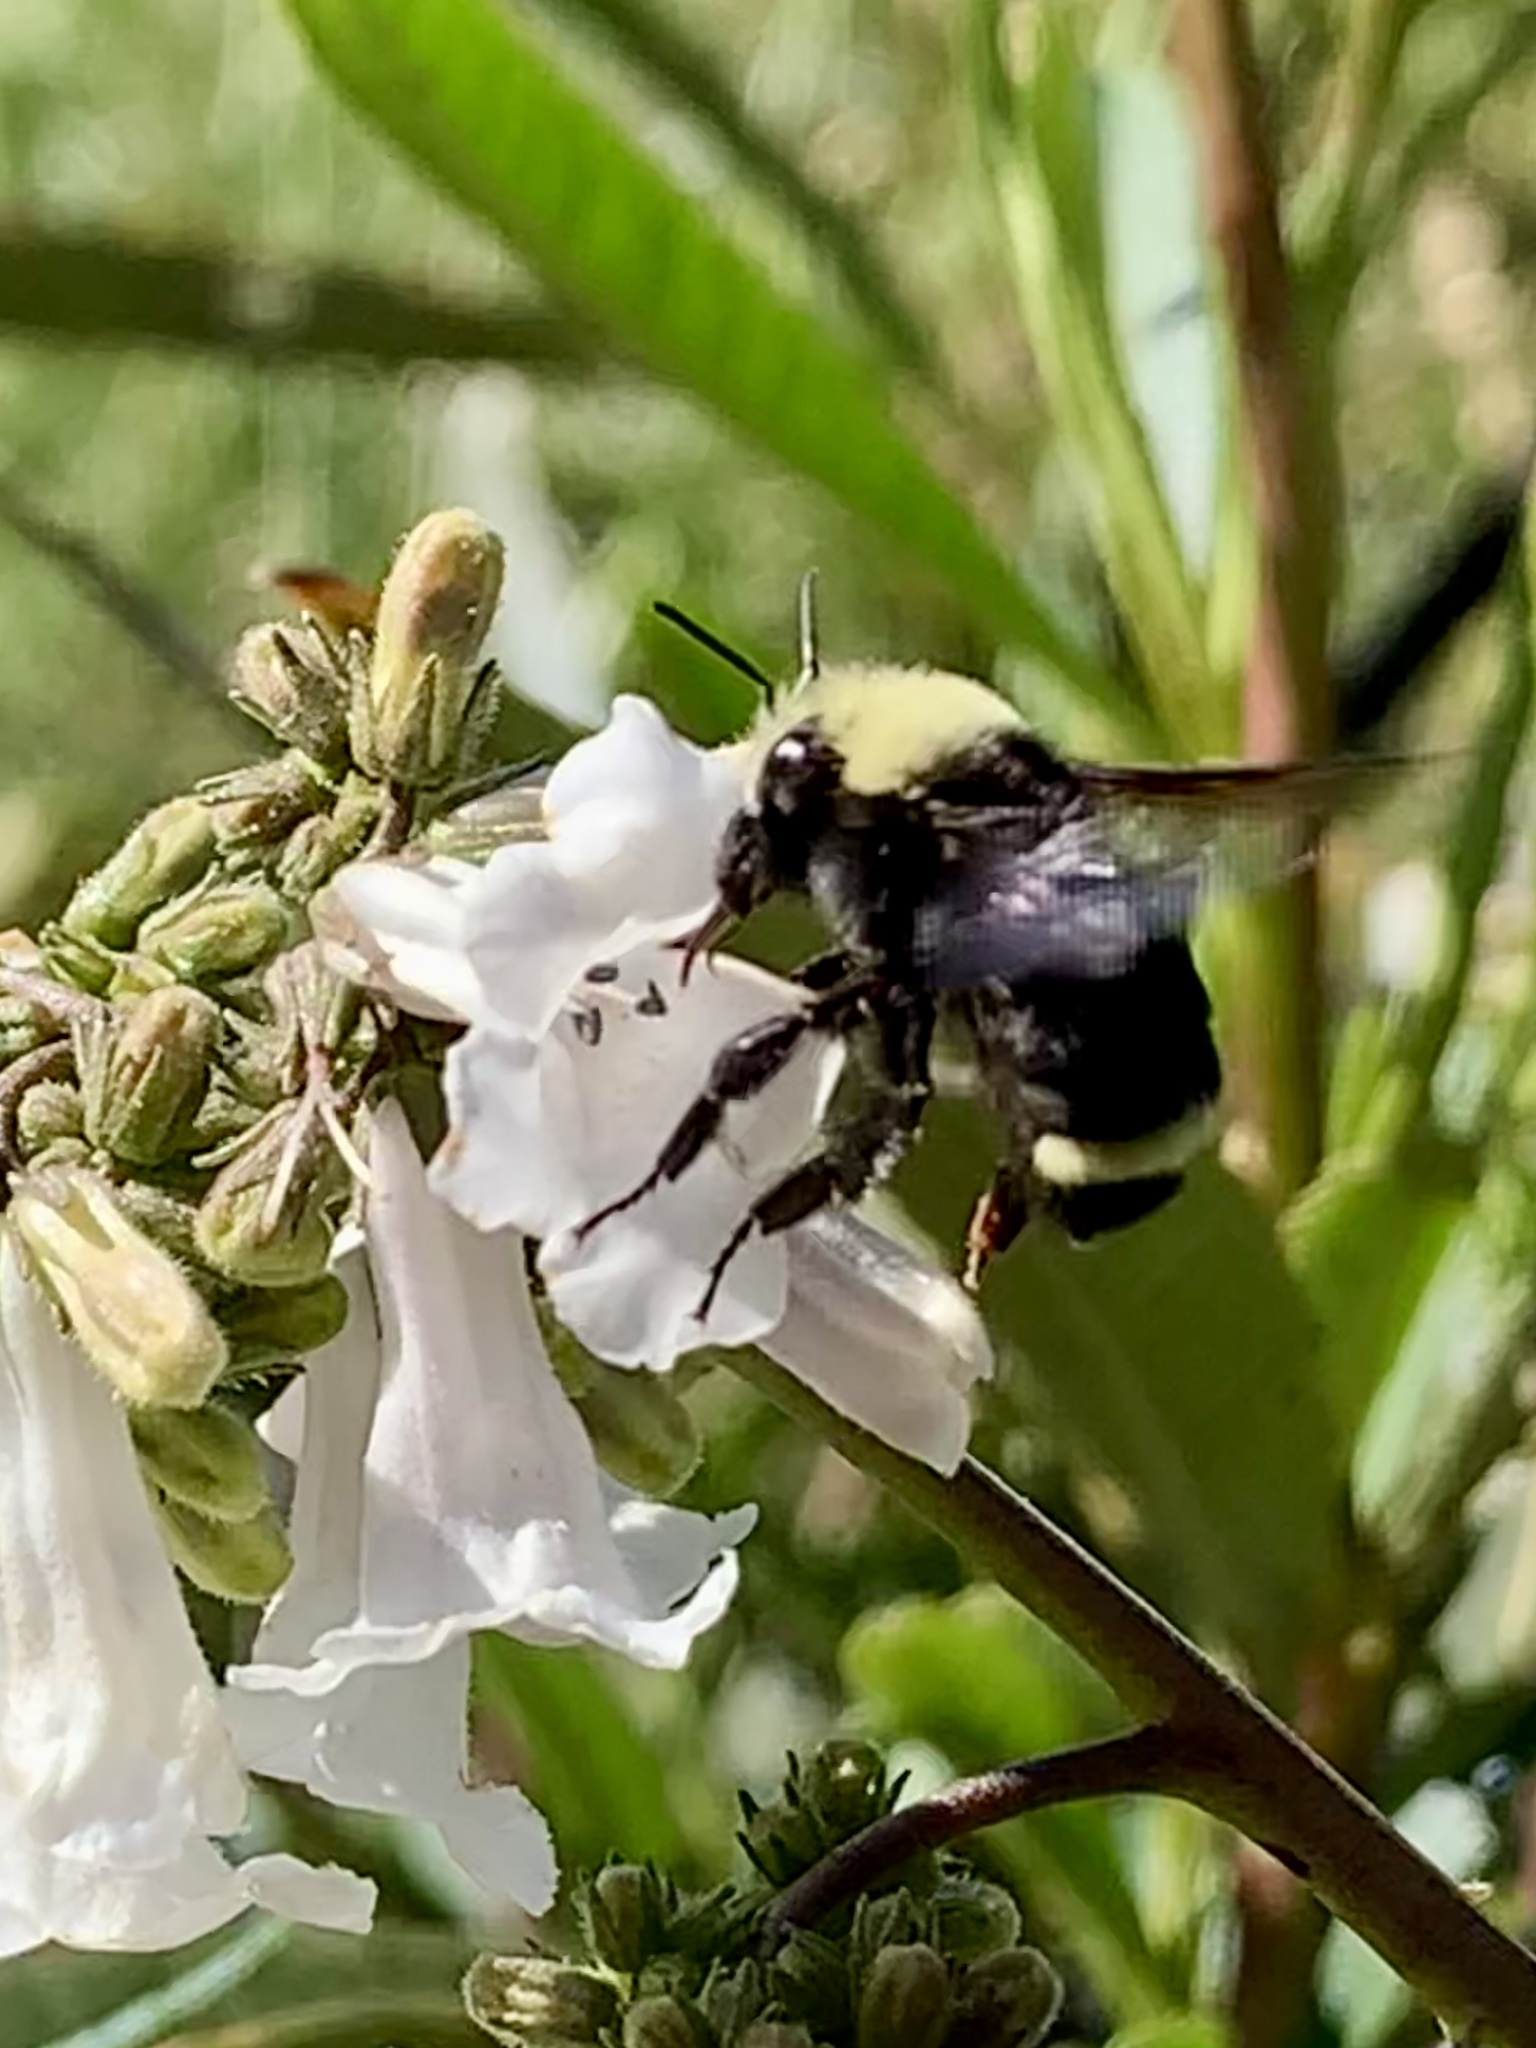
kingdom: Animalia
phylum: Arthropoda
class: Insecta
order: Hymenoptera
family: Apidae
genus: Bombus
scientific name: Bombus vosnesenskii
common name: Vosnesensky bumble bee
